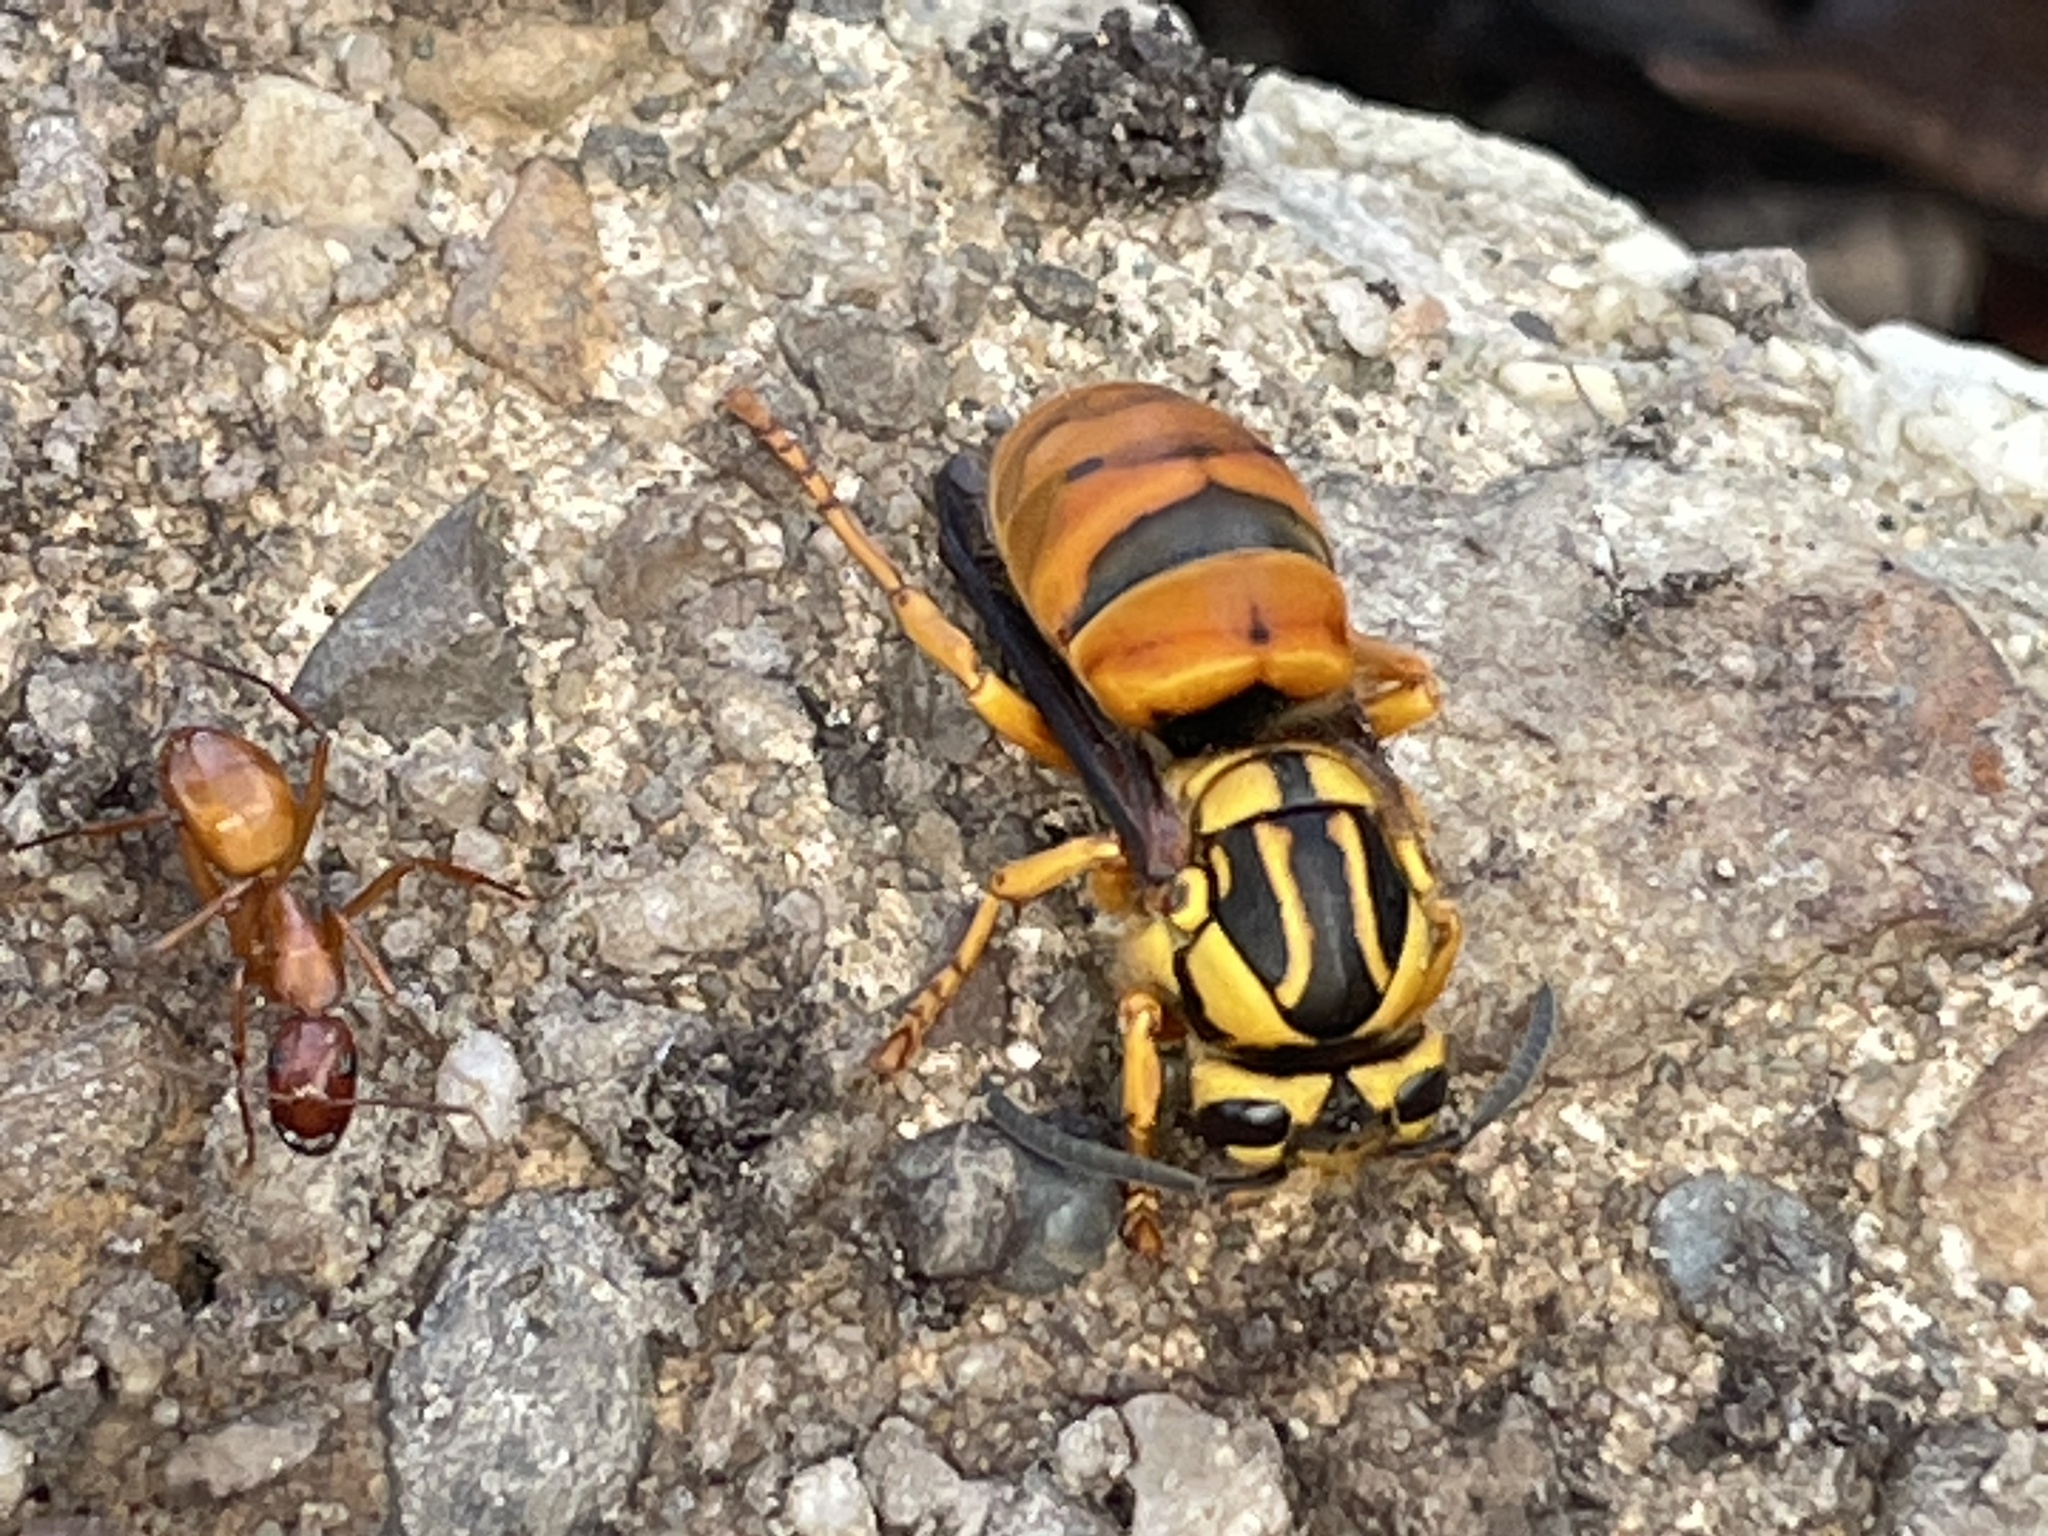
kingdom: Animalia
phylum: Arthropoda
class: Insecta
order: Hymenoptera
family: Vespidae
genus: Vespula
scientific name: Vespula squamosa
